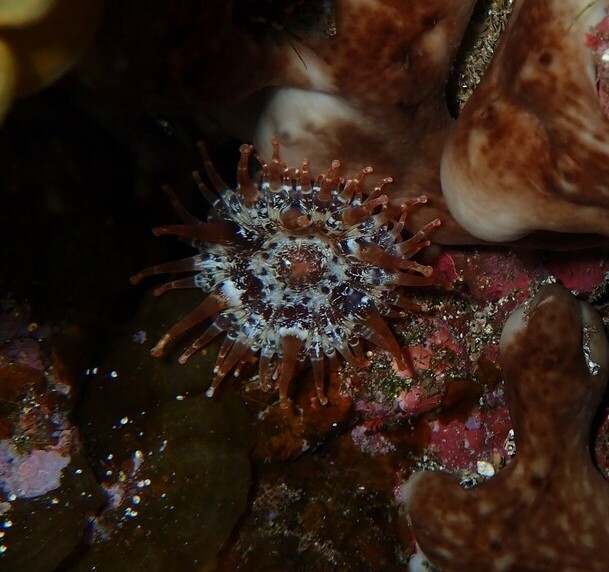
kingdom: Animalia
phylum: Cnidaria
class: Anthozoa
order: Actiniaria
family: Andvakiidae
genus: Telmatactis
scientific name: Telmatactis cricoides
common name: Blunt-tentacled anemone
